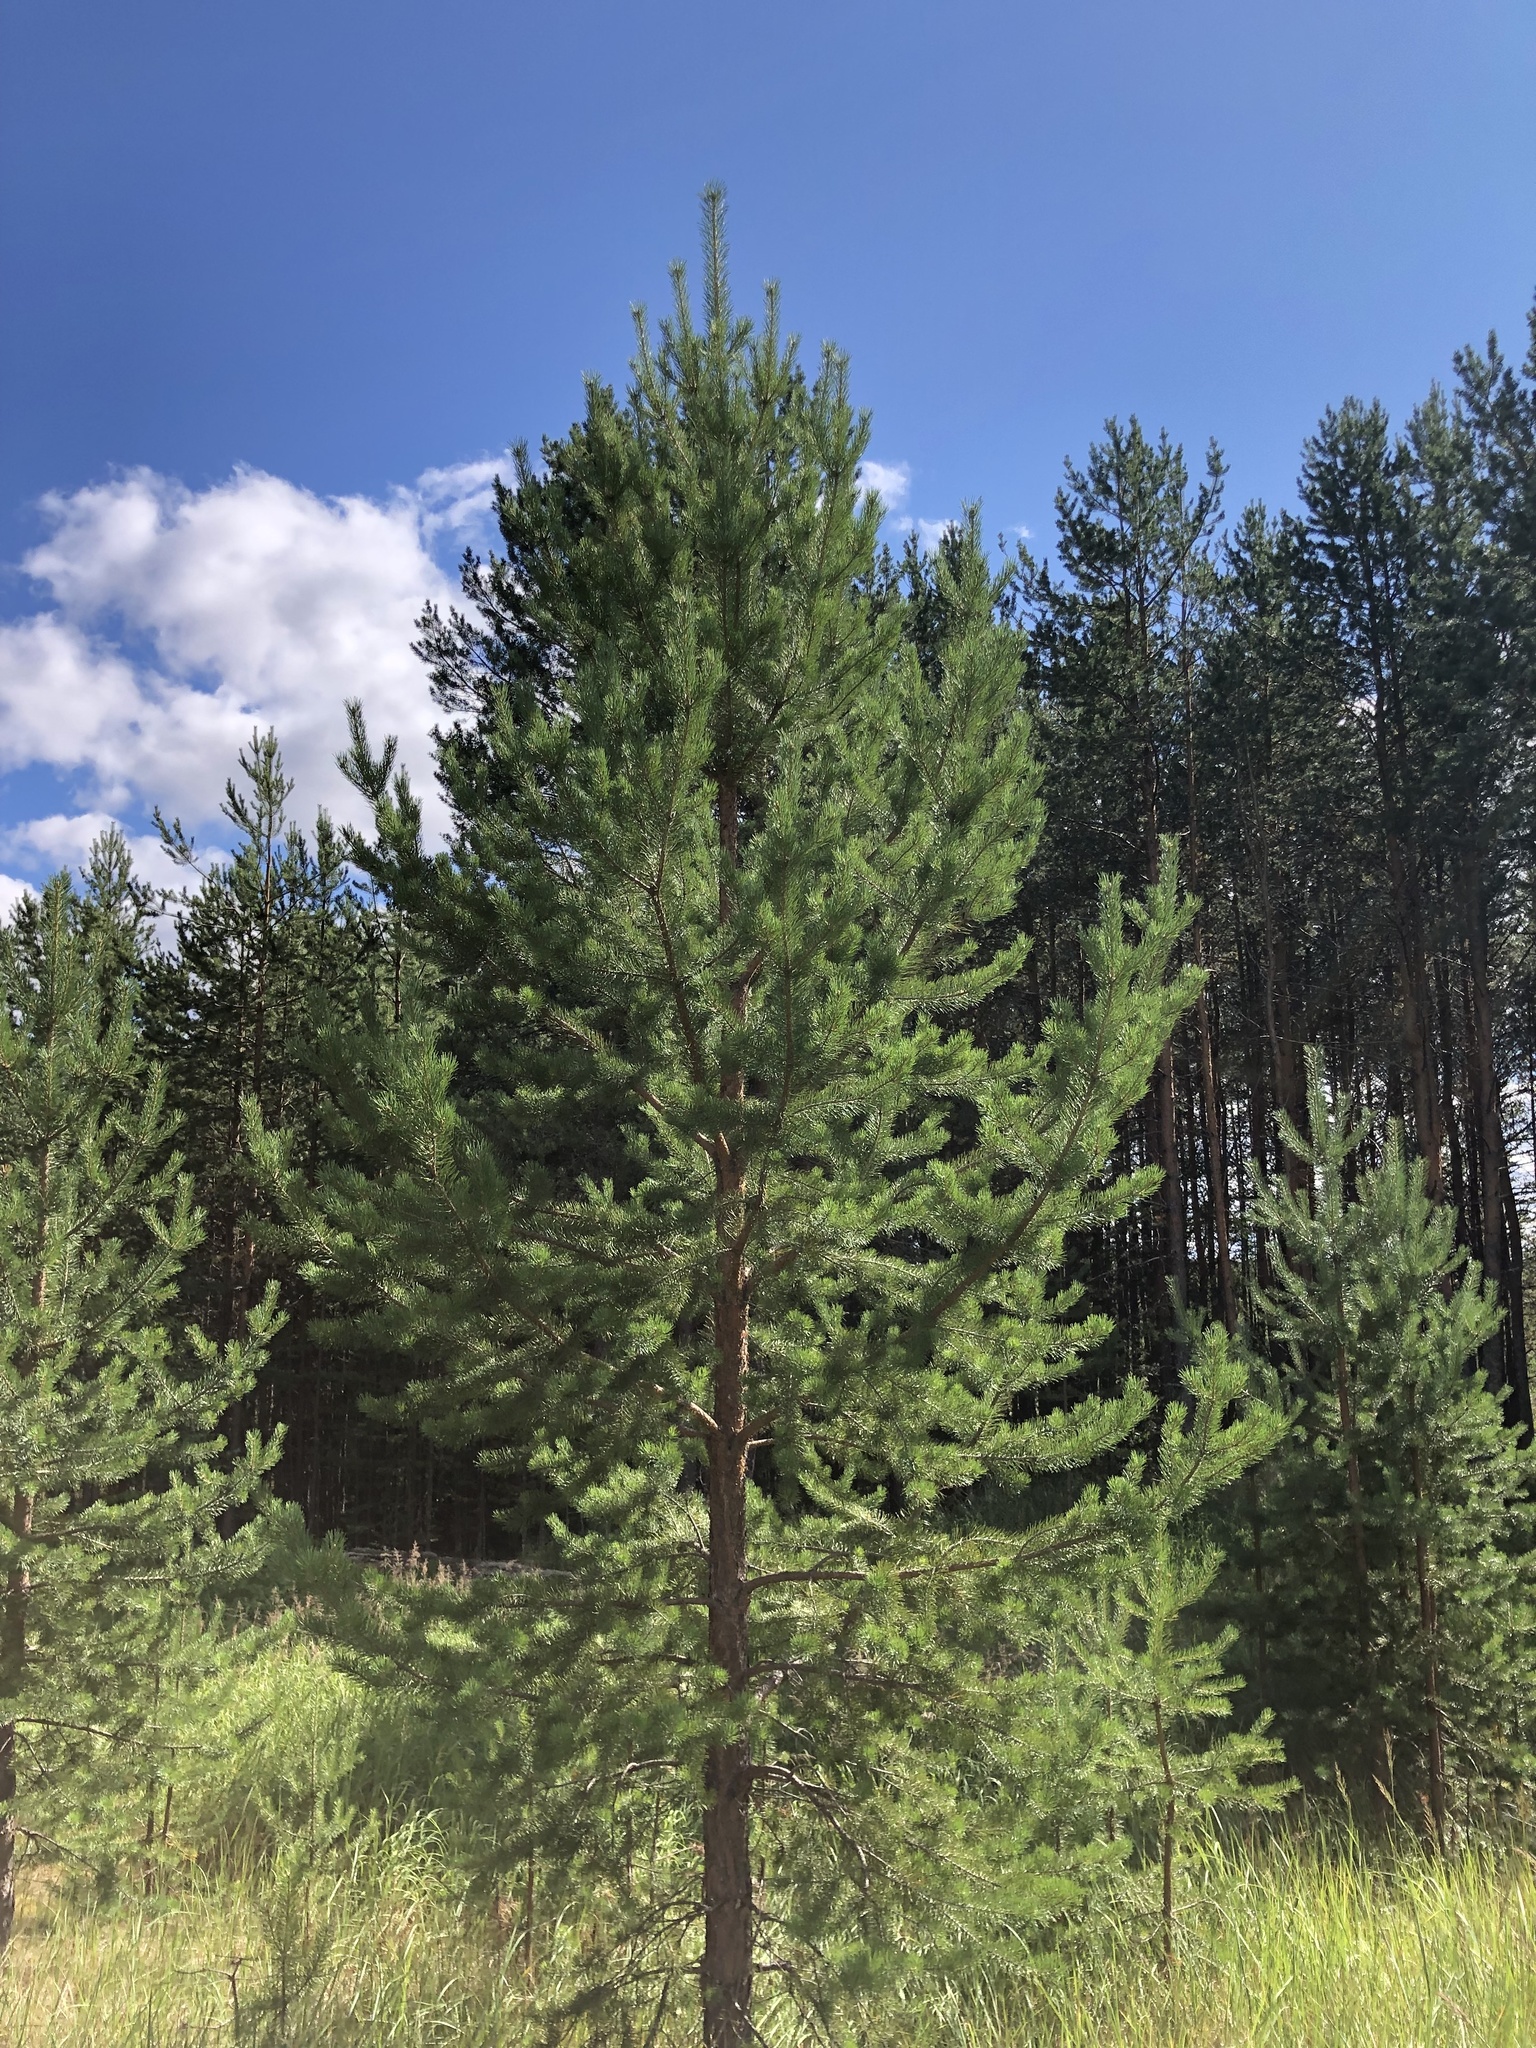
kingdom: Plantae
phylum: Tracheophyta
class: Pinopsida
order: Pinales
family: Pinaceae
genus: Pinus
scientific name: Pinus sylvestris
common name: Scots pine
